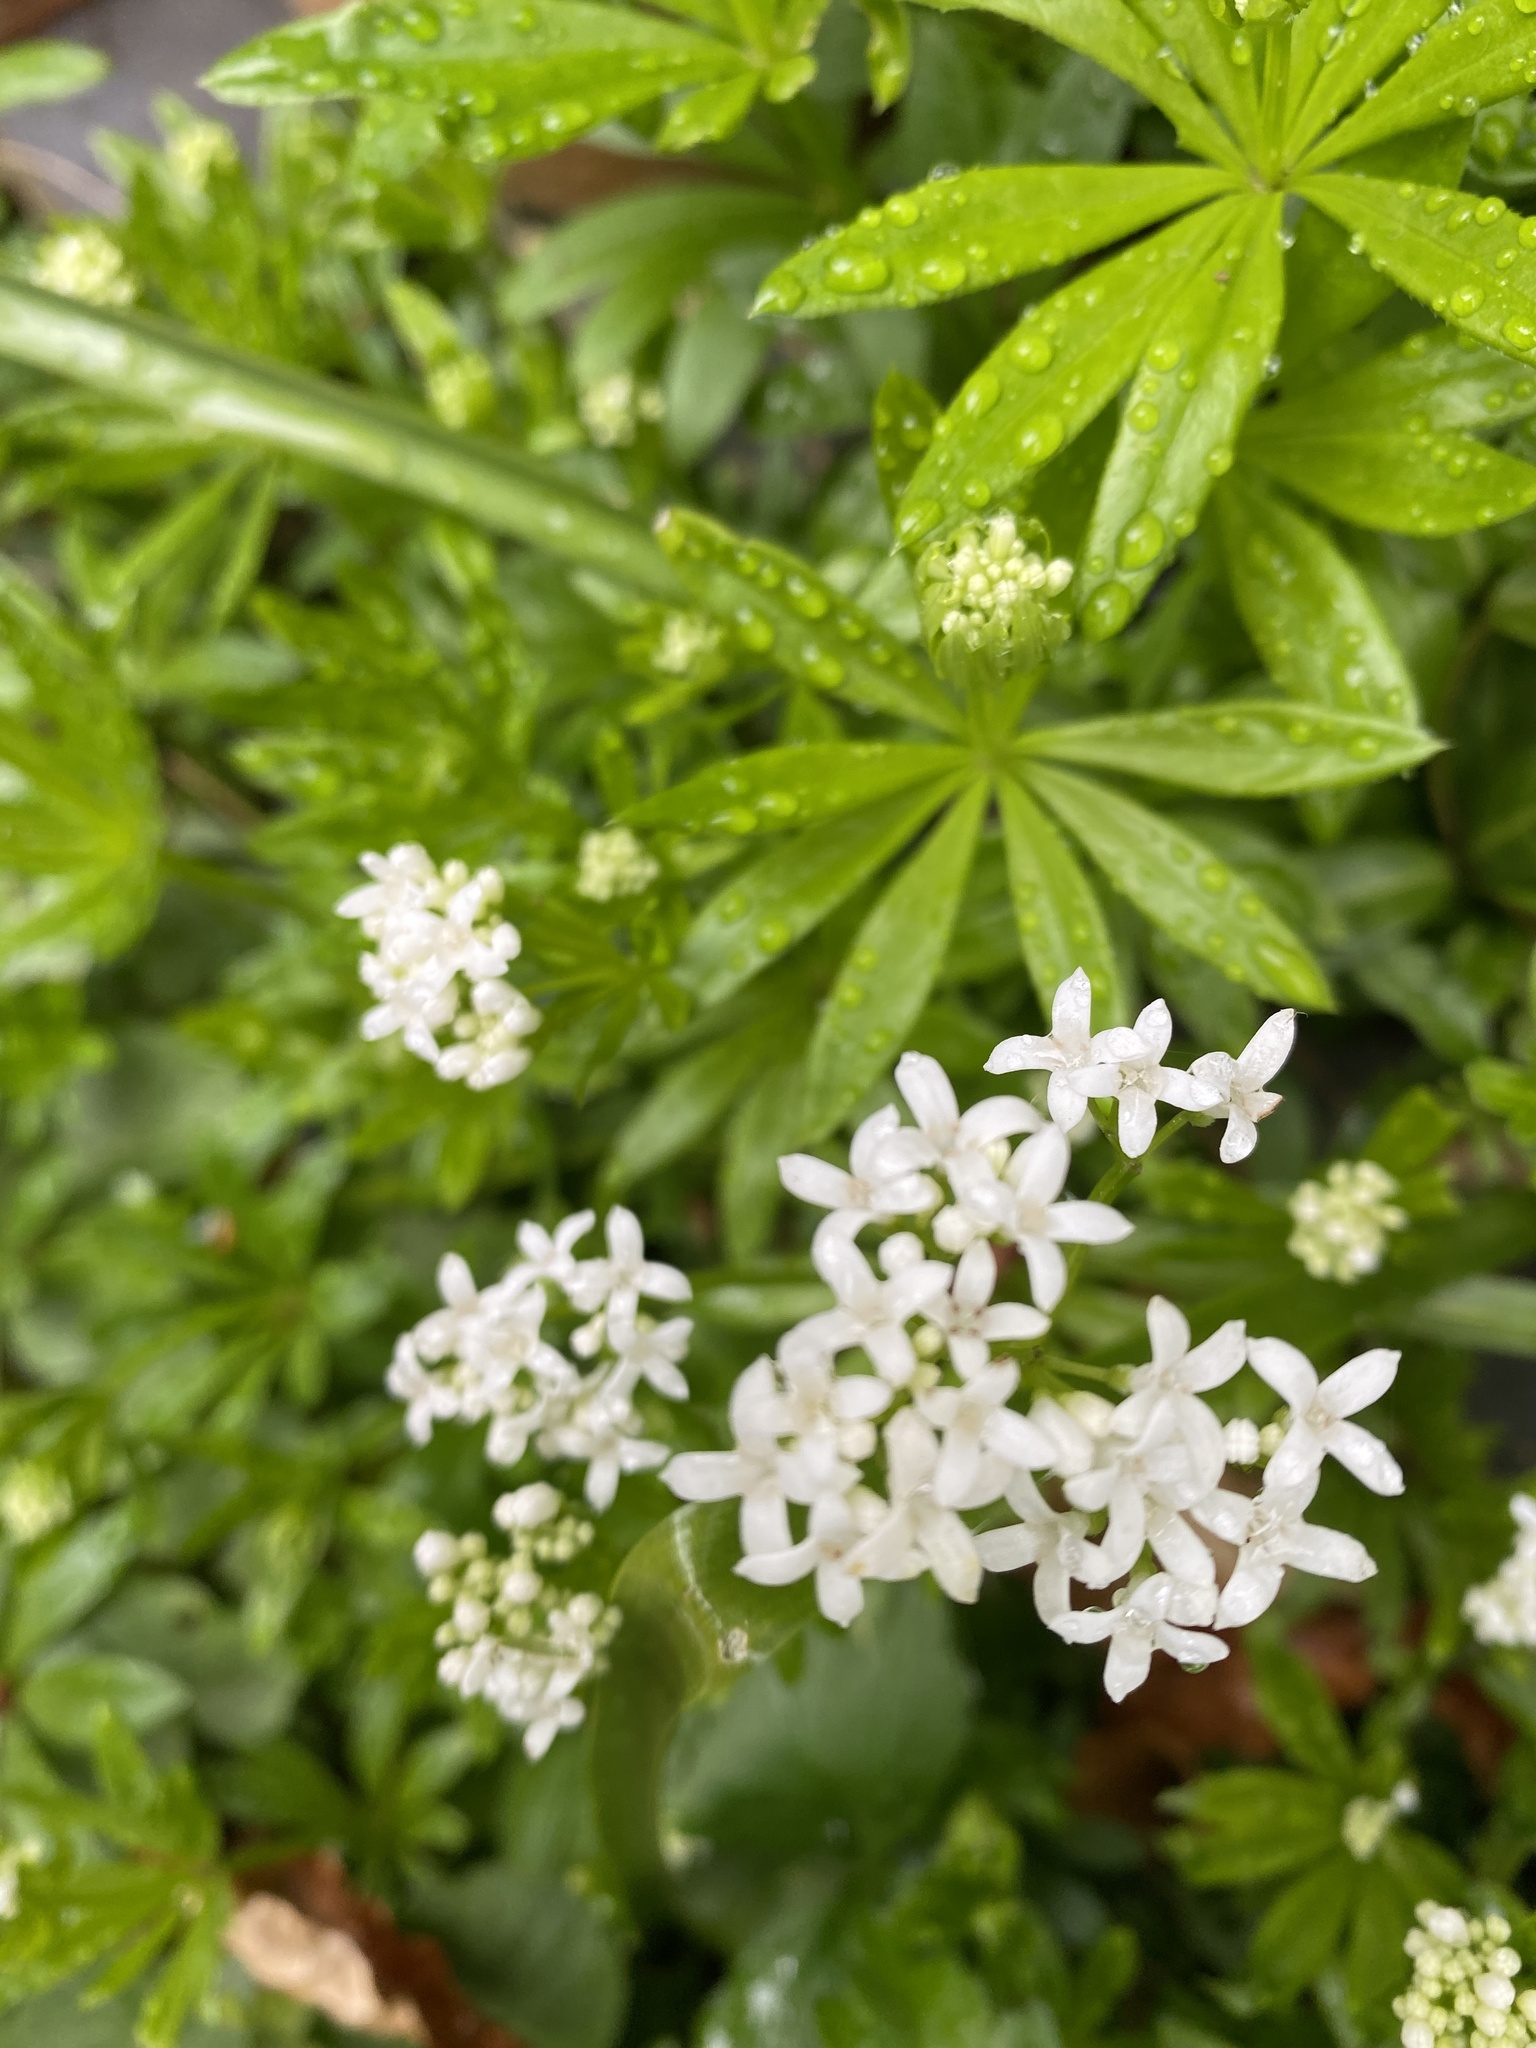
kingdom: Plantae
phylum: Tracheophyta
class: Magnoliopsida
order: Gentianales
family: Rubiaceae
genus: Galium
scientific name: Galium odoratum
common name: Sweet woodruff
